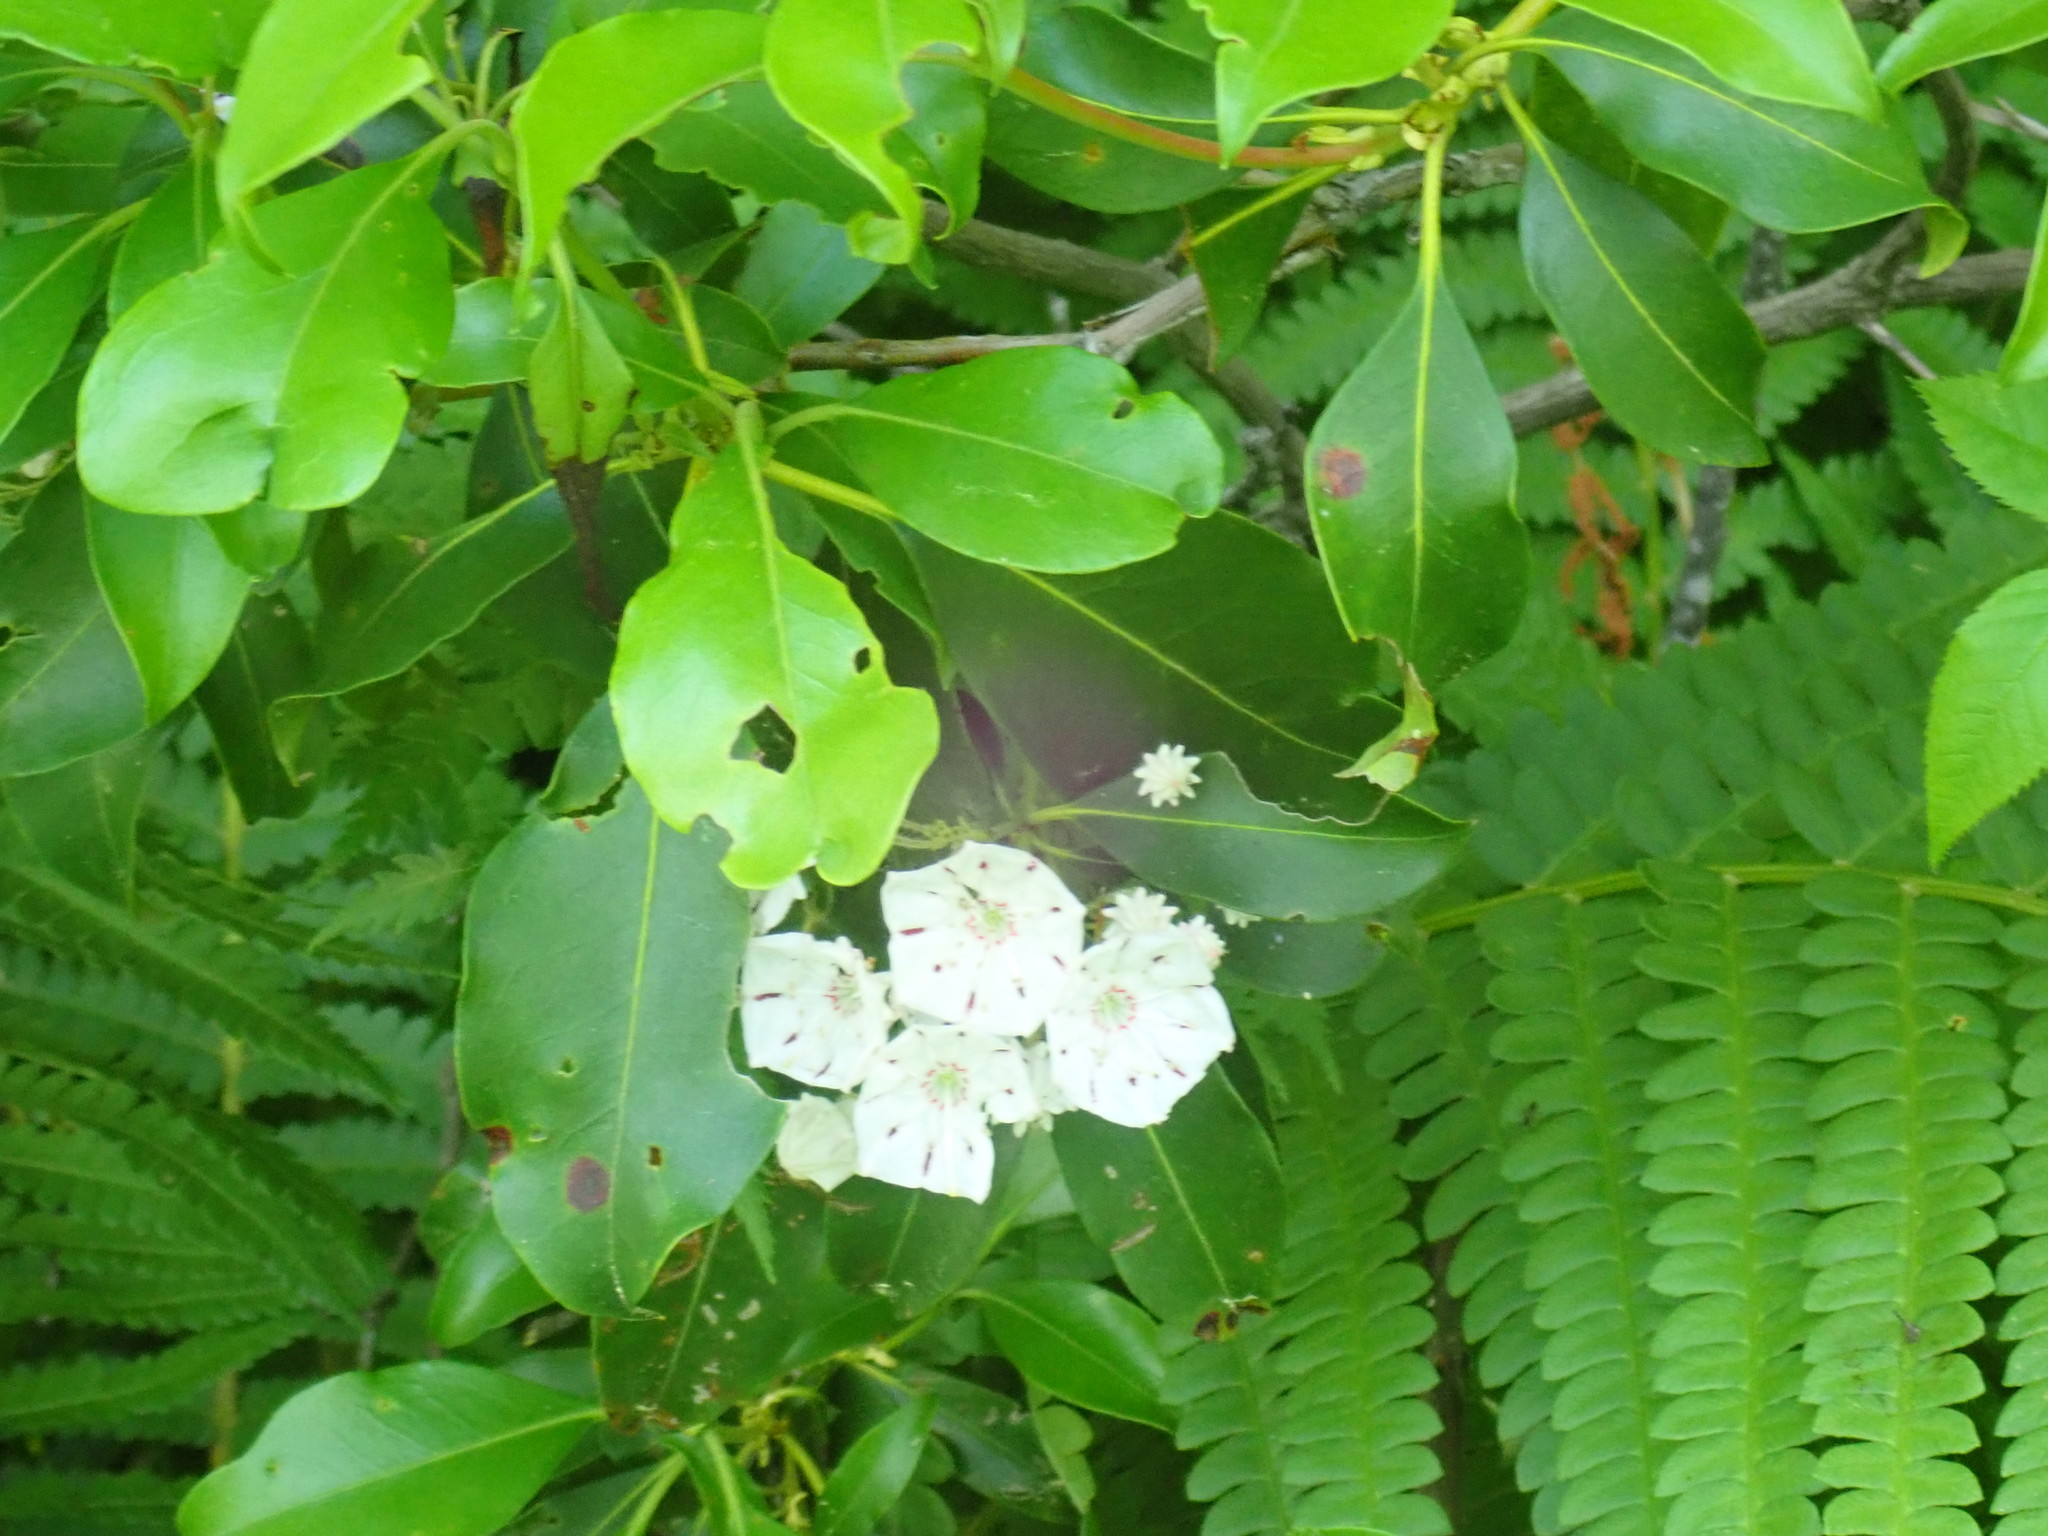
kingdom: Plantae
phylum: Tracheophyta
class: Magnoliopsida
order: Ericales
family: Ericaceae
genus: Kalmia
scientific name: Kalmia latifolia
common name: Mountain-laurel
